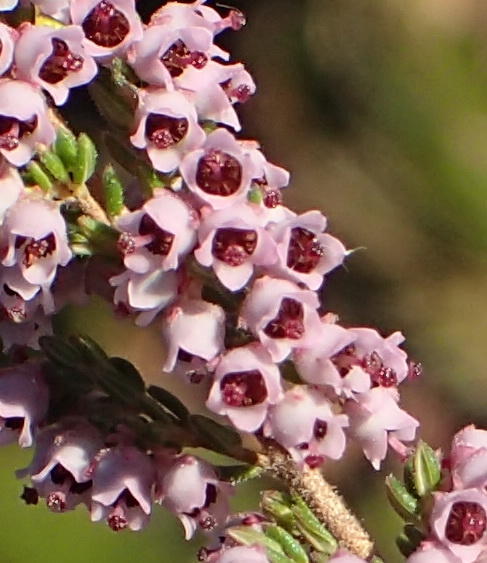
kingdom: Plantae
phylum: Tracheophyta
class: Magnoliopsida
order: Ericales
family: Ericaceae
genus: Erica
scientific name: Erica copiosa
